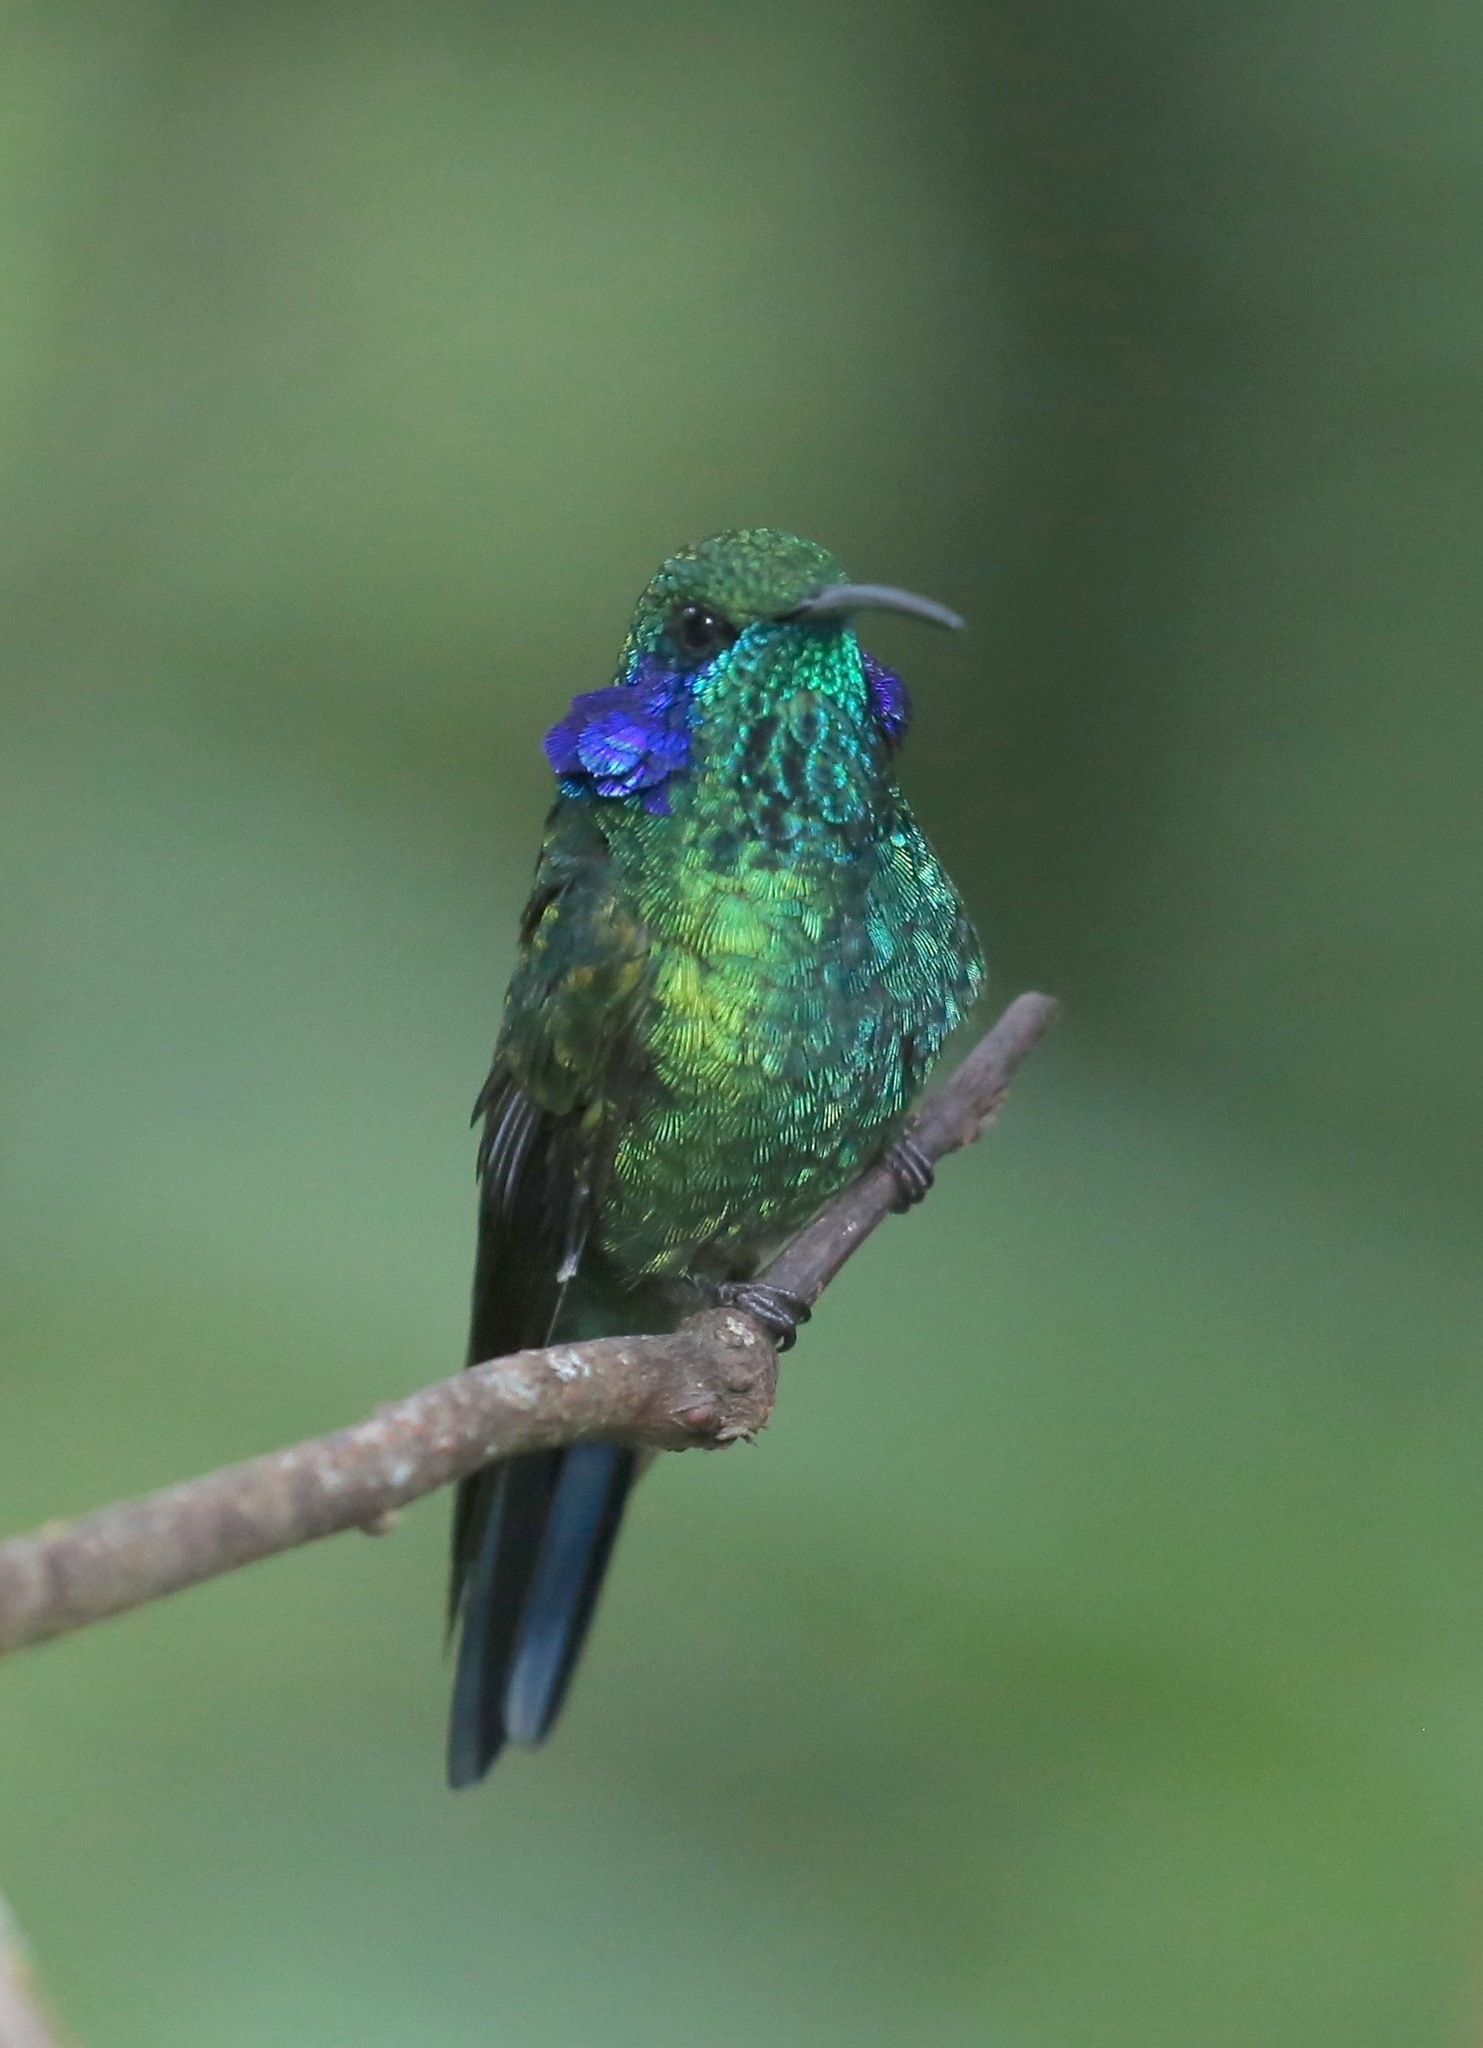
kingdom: Animalia
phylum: Chordata
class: Aves
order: Apodiformes
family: Trochilidae
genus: Colibri
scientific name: Colibri cyanotus
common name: Lesser violetear
